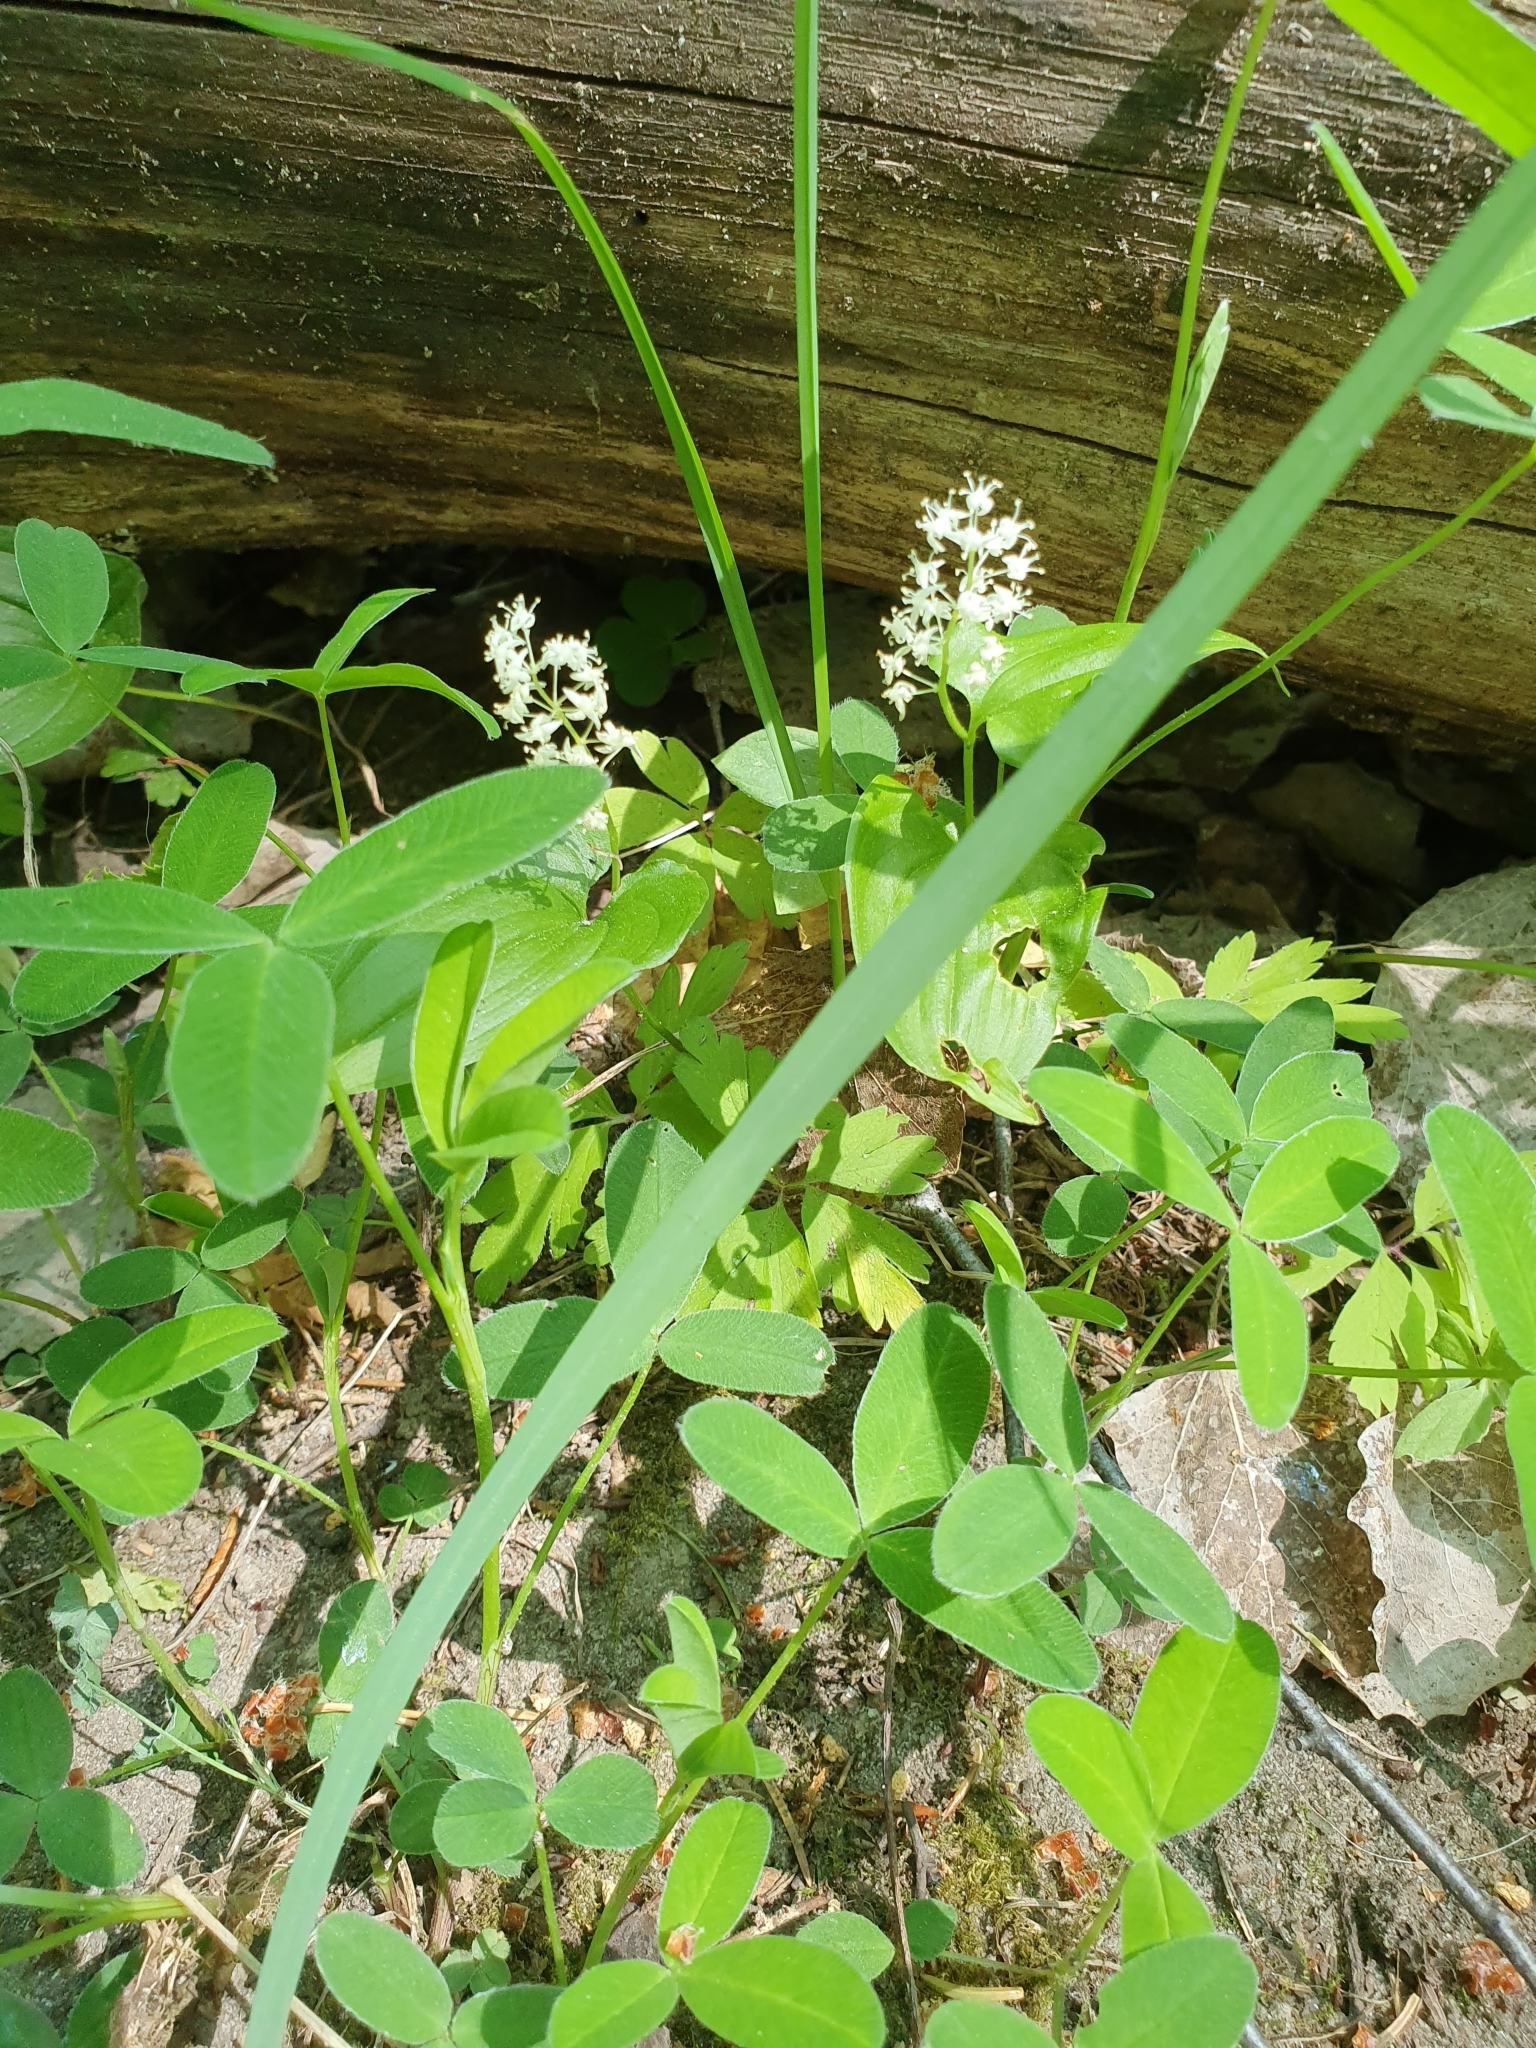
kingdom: Plantae
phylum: Tracheophyta
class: Liliopsida
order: Asparagales
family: Asparagaceae
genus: Maianthemum
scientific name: Maianthemum bifolium
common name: May lily
